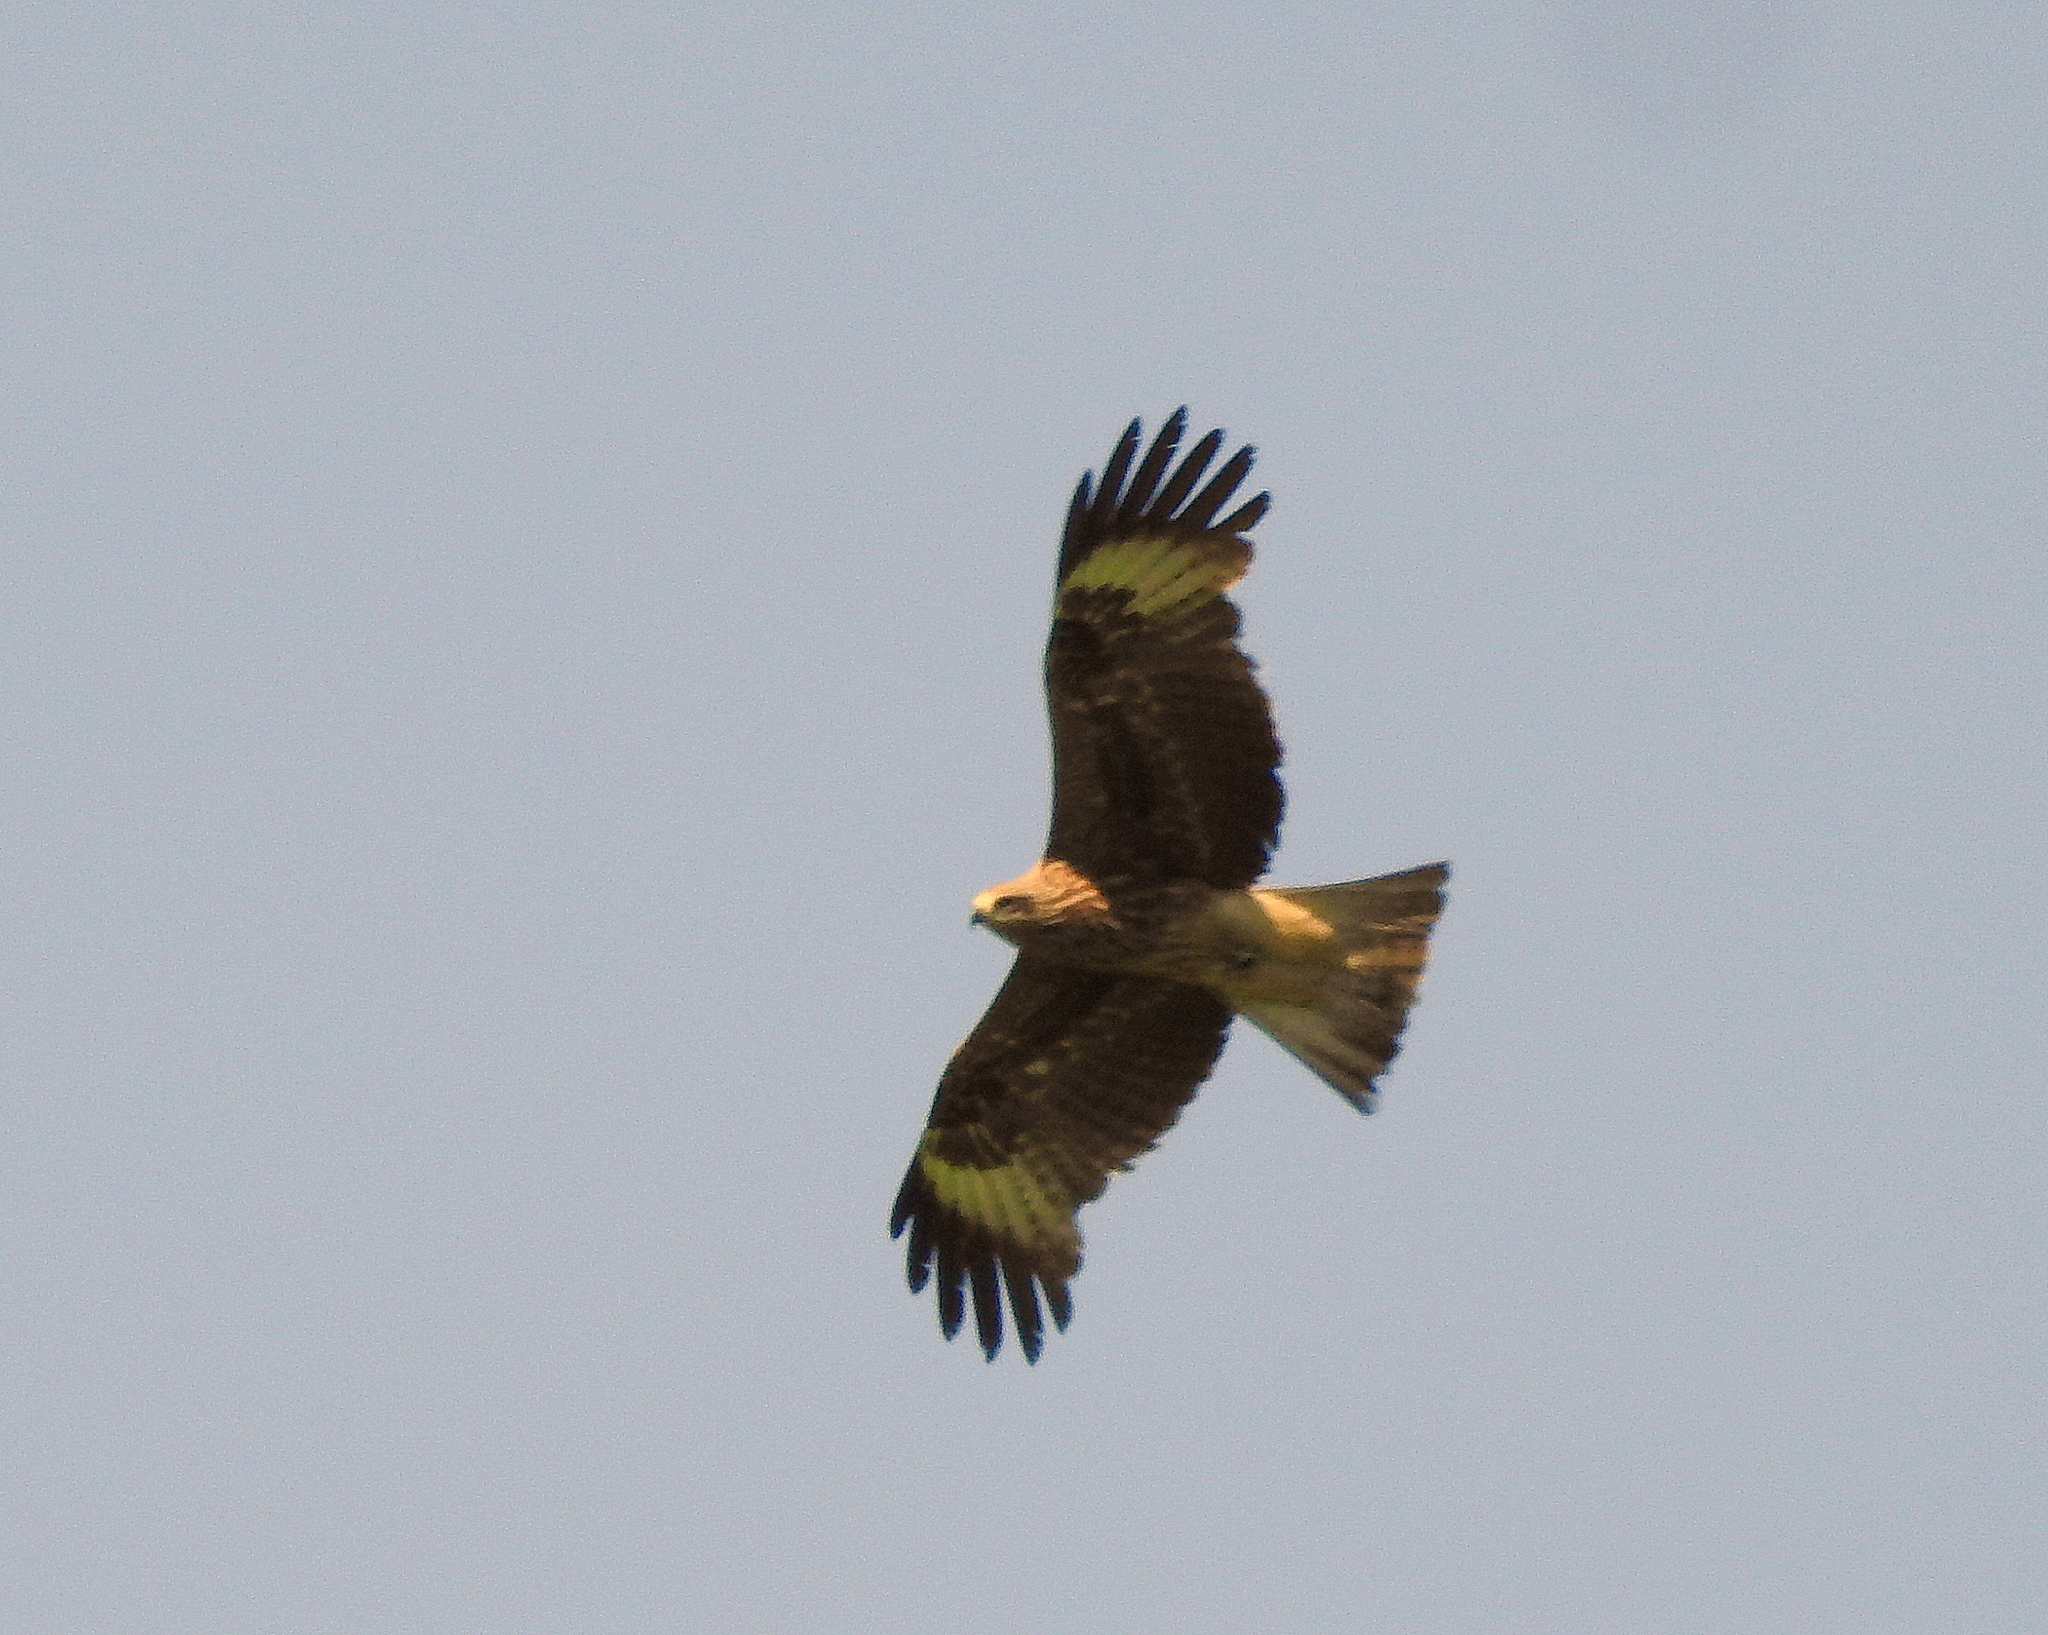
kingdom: Animalia
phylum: Chordata
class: Aves
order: Accipitriformes
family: Accipitridae
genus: Milvus
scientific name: Milvus migrans
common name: Black kite
